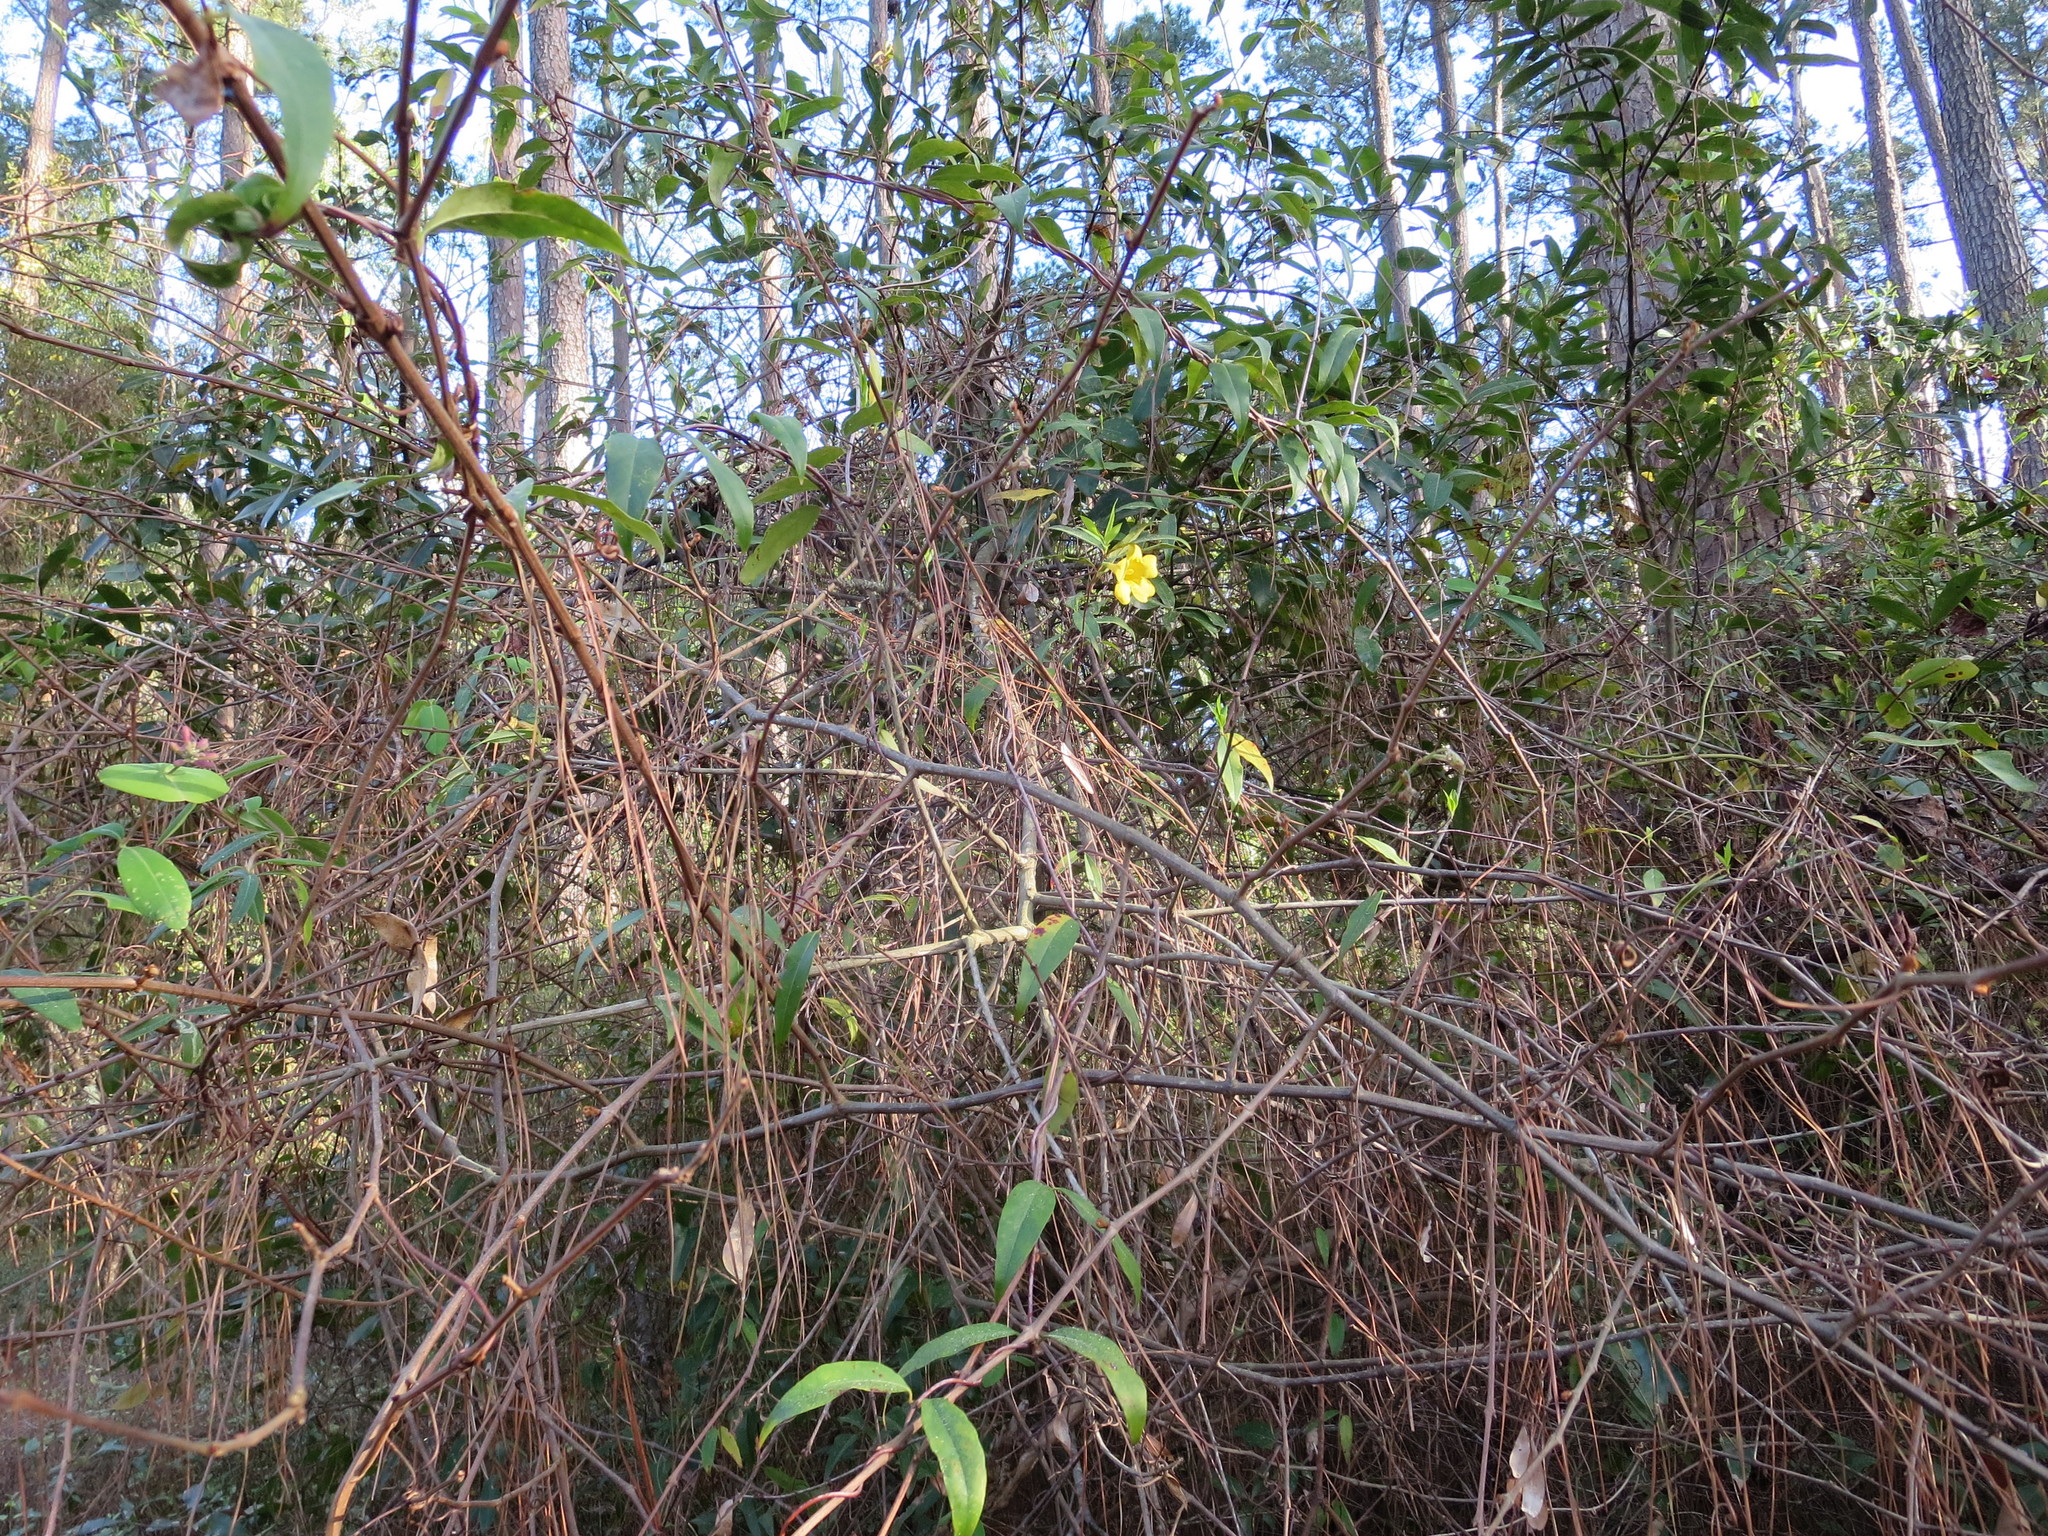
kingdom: Plantae
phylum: Tracheophyta
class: Magnoliopsida
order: Gentianales
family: Gelsemiaceae
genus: Gelsemium
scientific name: Gelsemium sempervirens
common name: Carolina-jasmine
